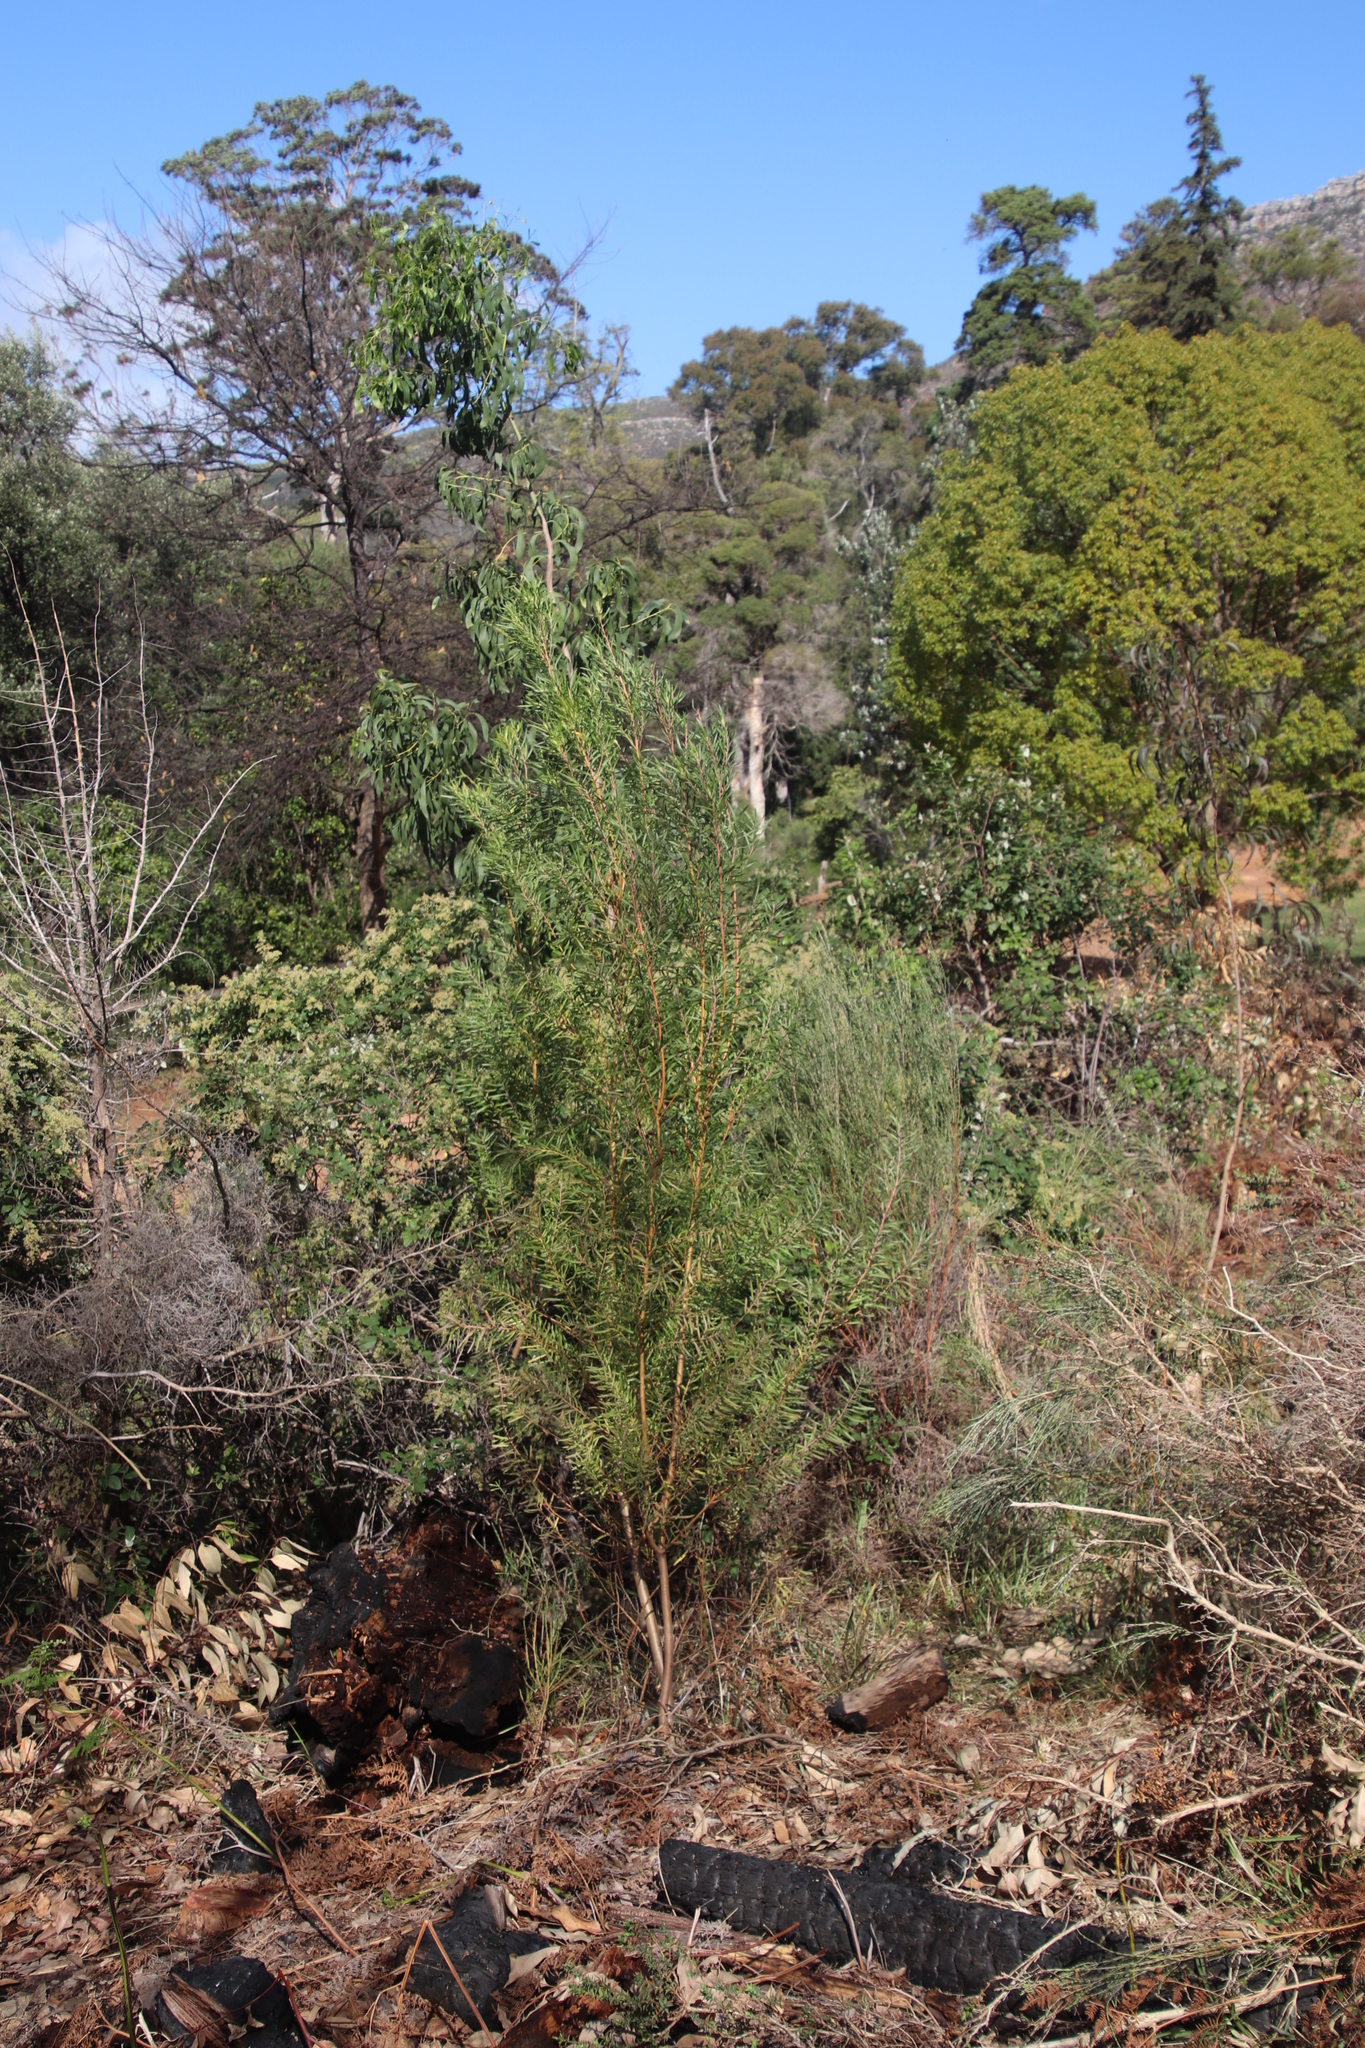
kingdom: Plantae
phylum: Tracheophyta
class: Magnoliopsida
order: Proteales
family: Proteaceae
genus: Leucadendron
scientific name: Leucadendron macowanii
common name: Acacia-leaf conebush
